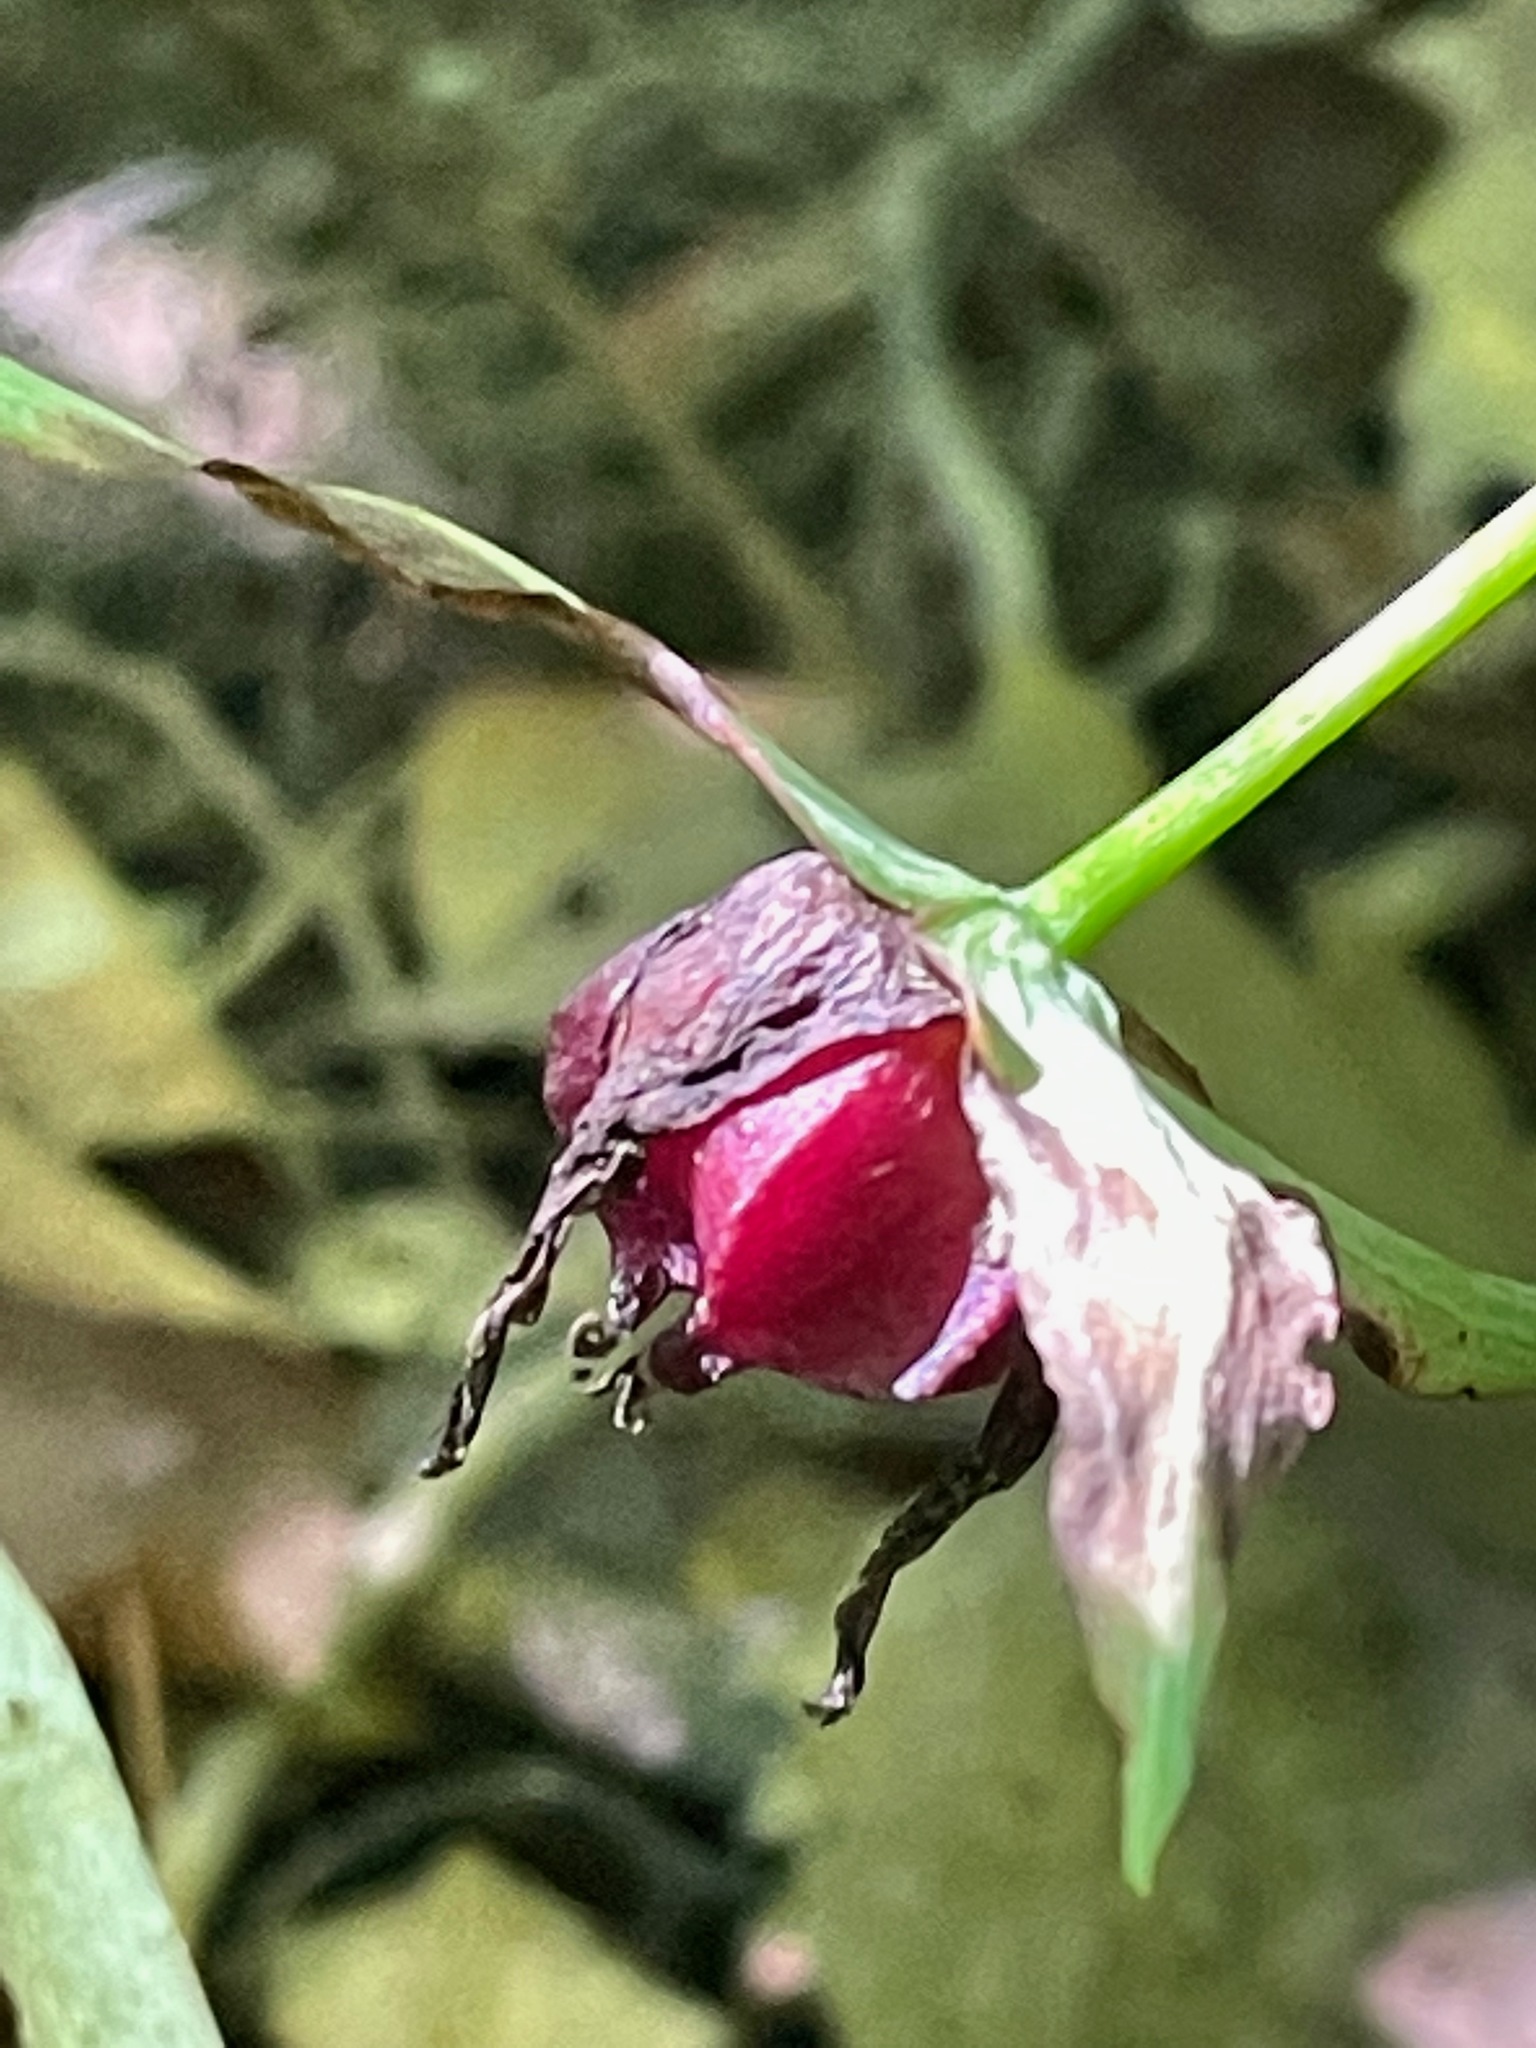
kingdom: Plantae
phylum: Tracheophyta
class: Liliopsida
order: Liliales
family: Melanthiaceae
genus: Trillium
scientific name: Trillium erectum
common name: Purple trillium
